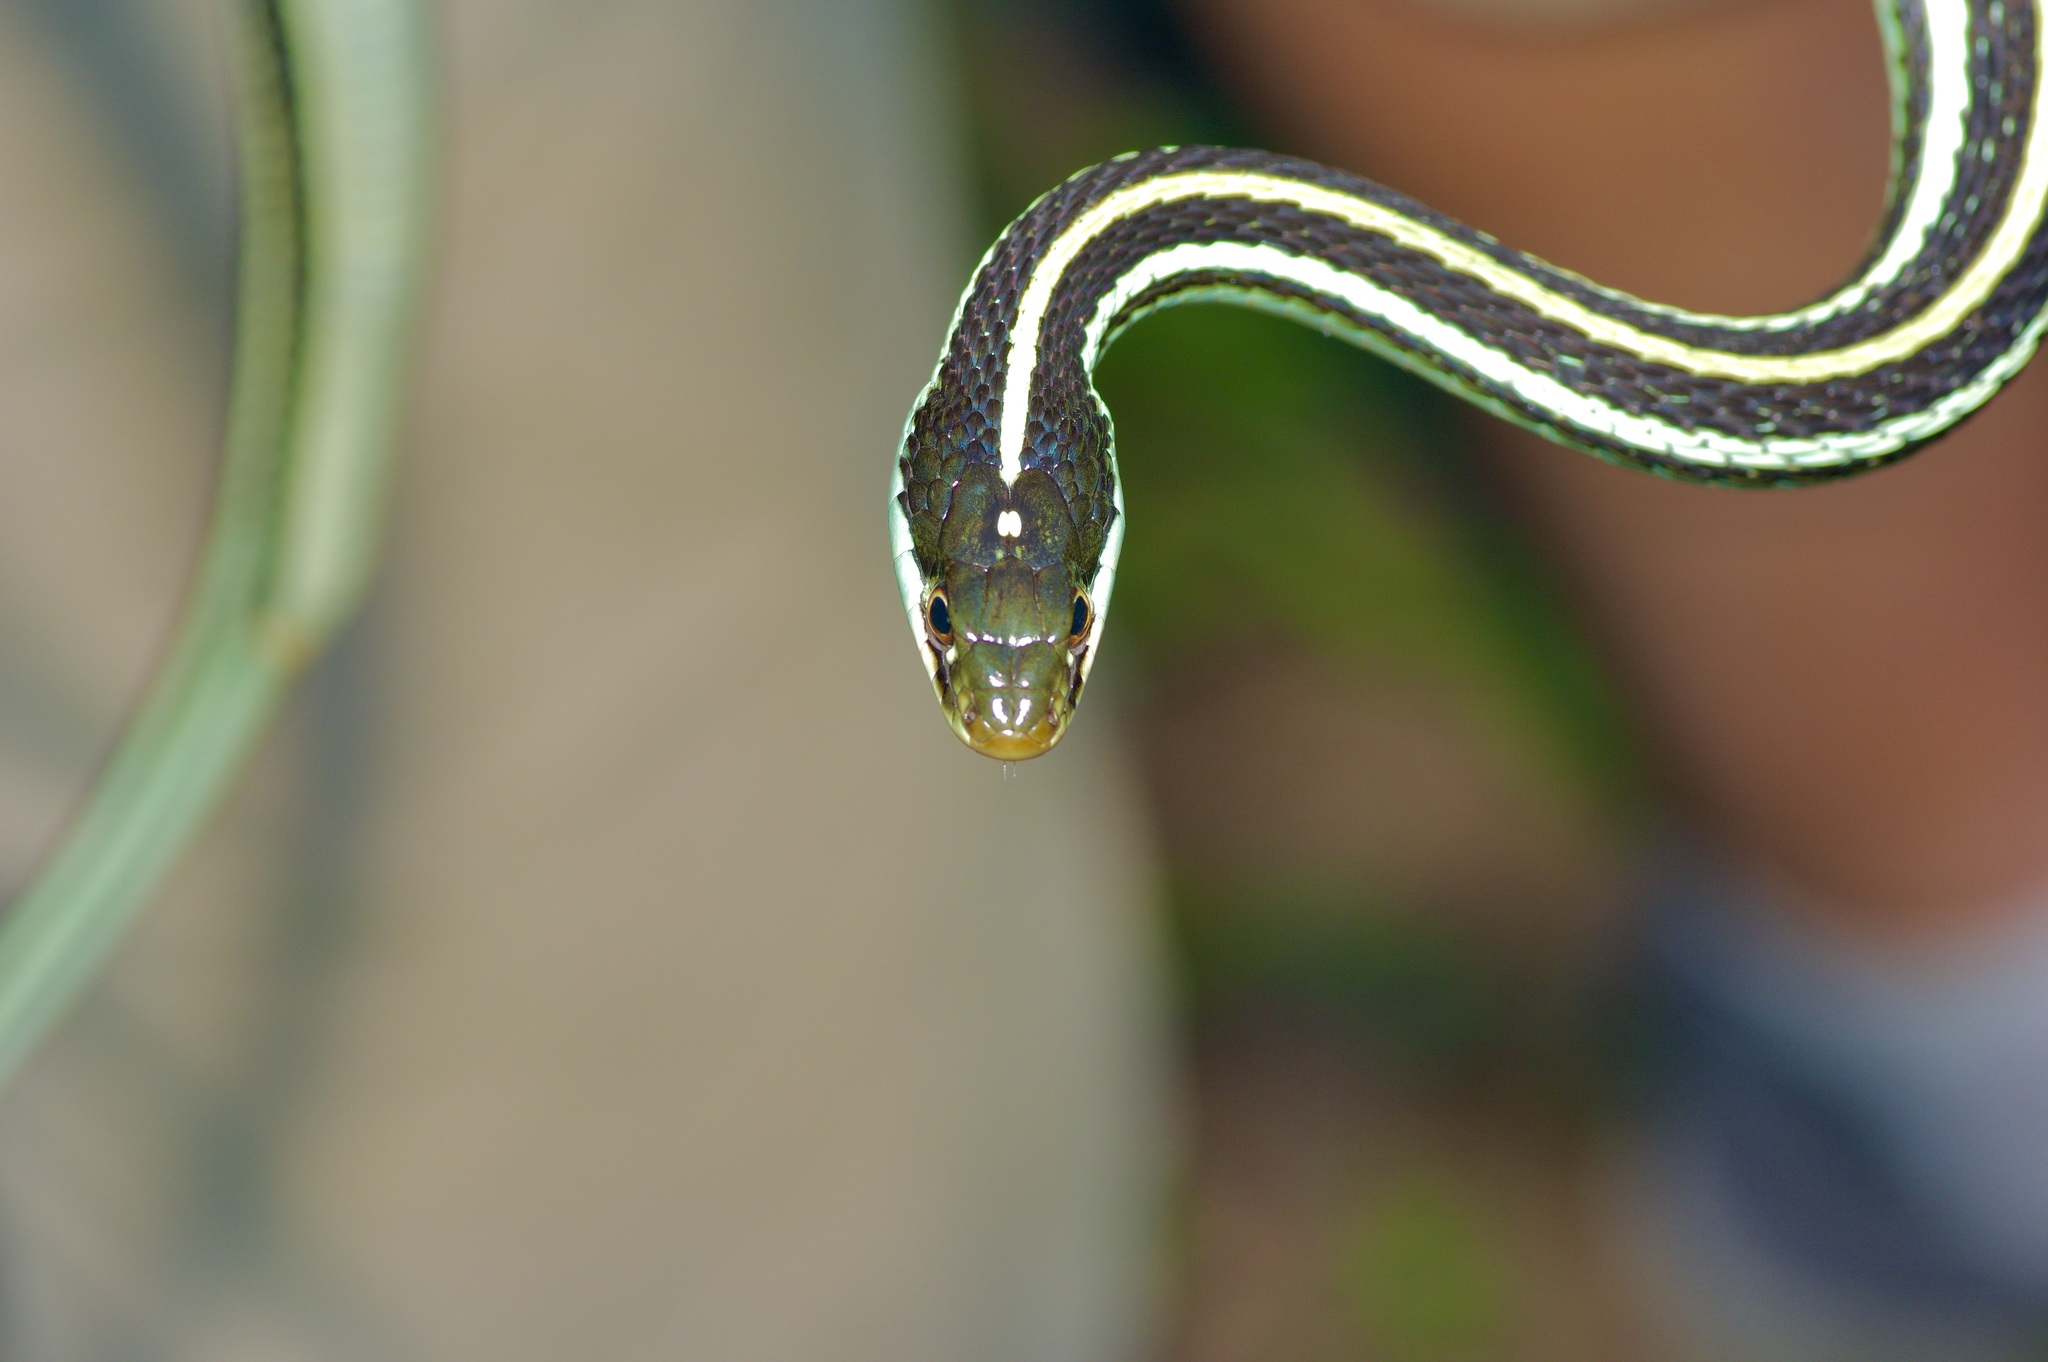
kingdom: Animalia
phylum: Chordata
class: Squamata
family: Colubridae
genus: Thamnophis
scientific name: Thamnophis proximus
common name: Western ribbon snake
